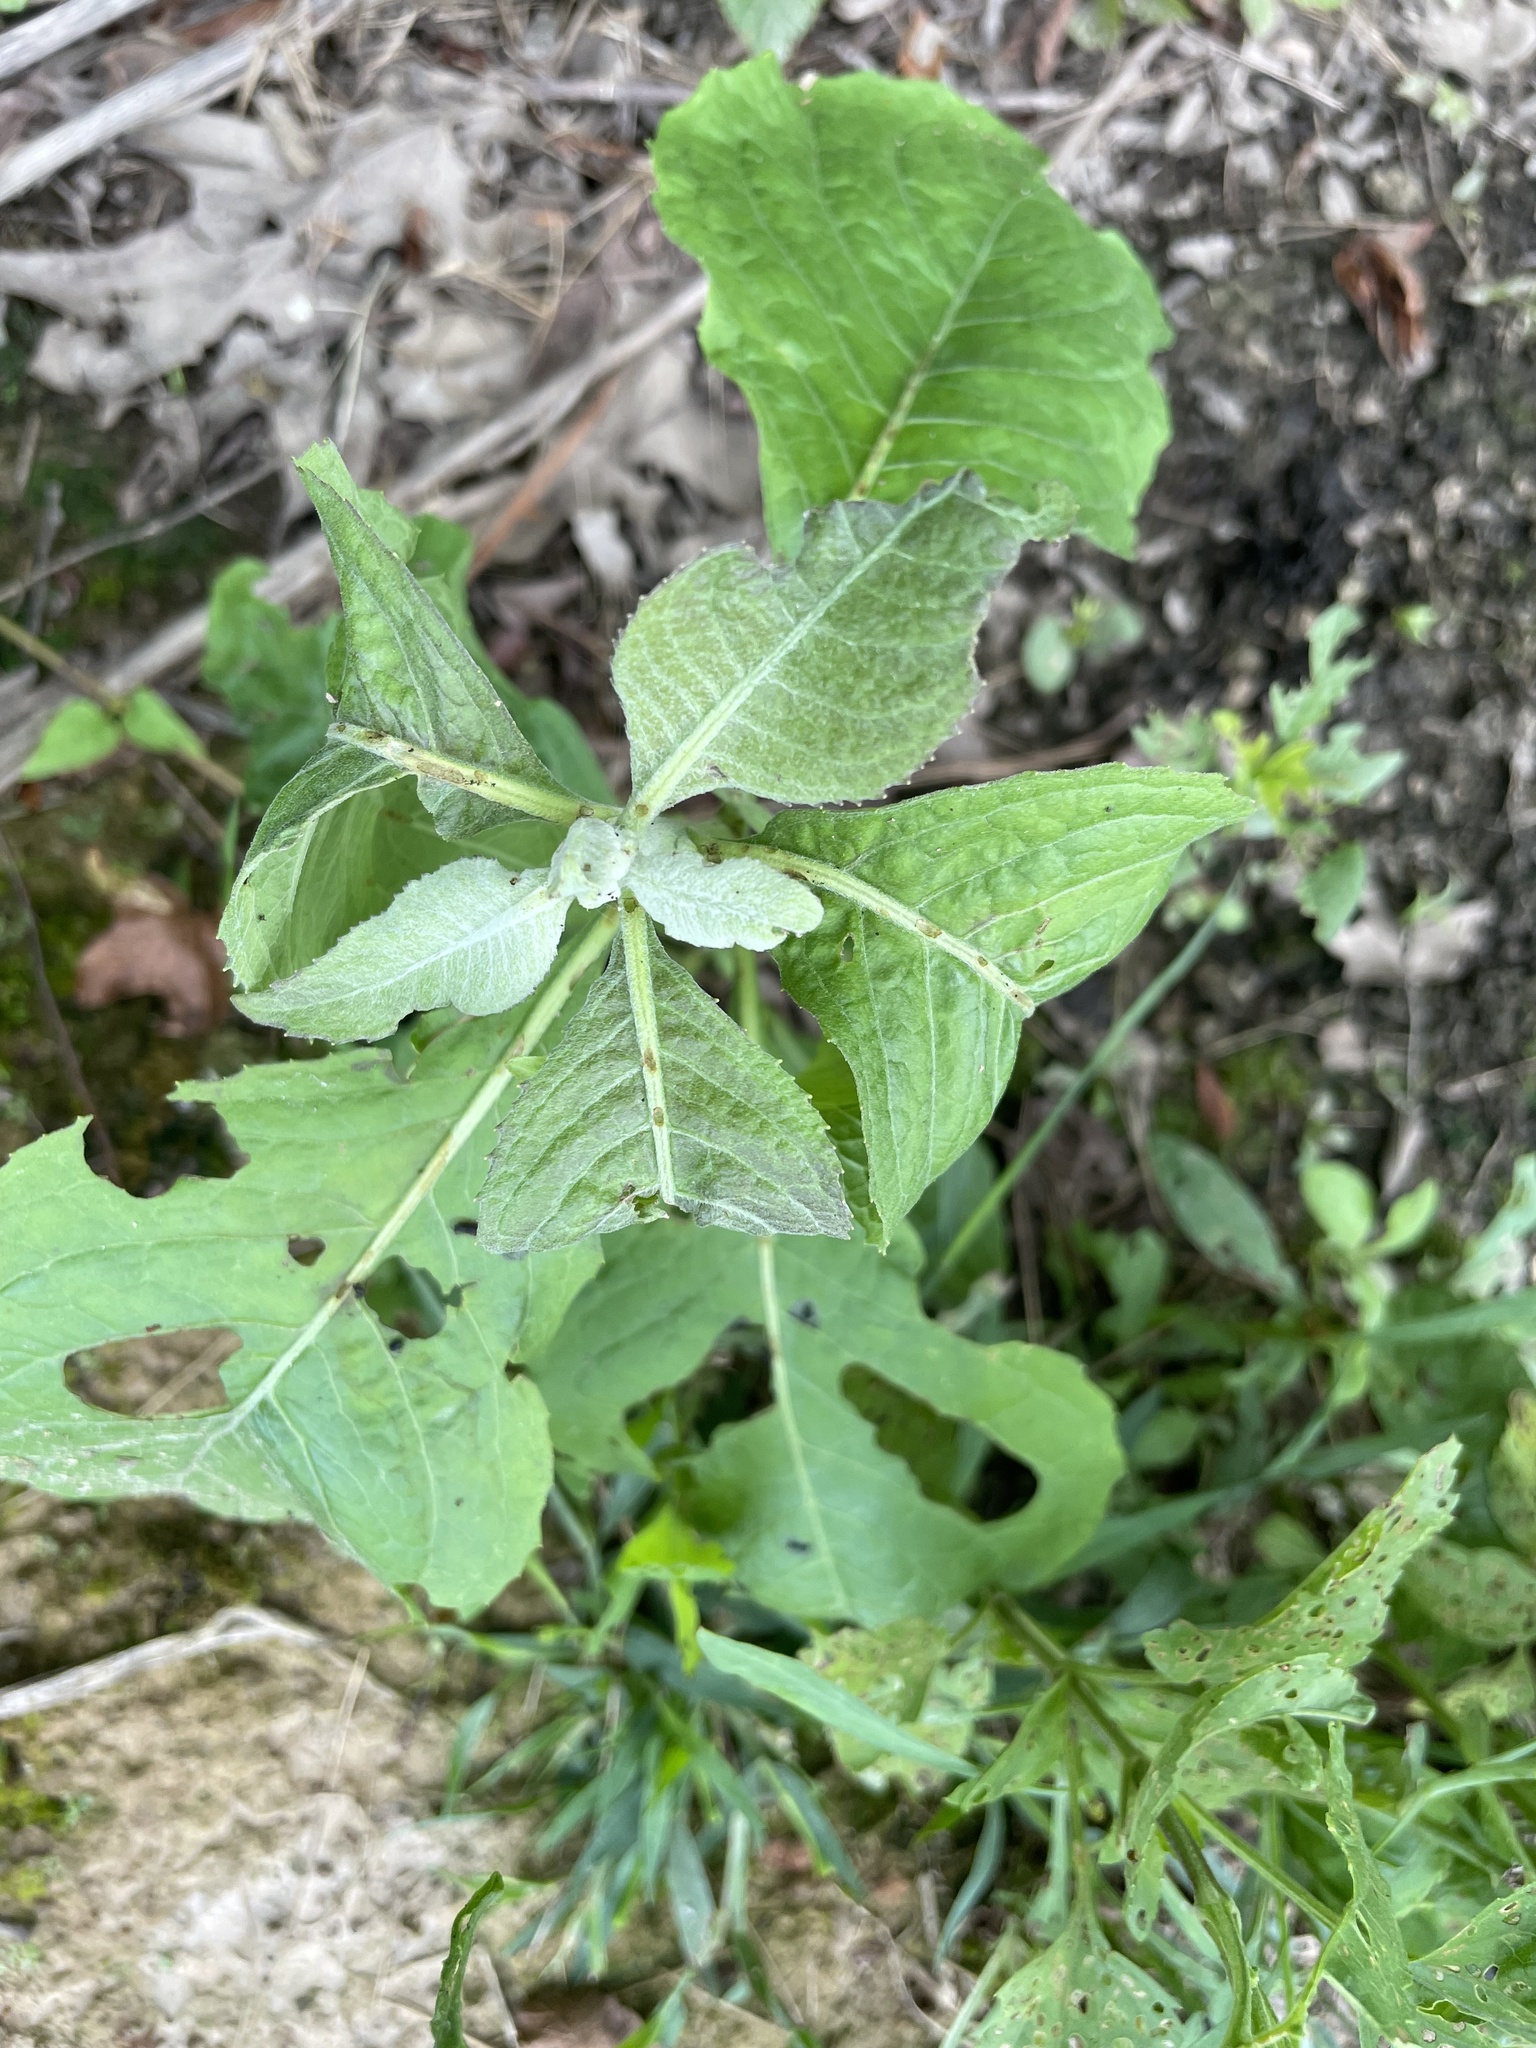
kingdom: Plantae
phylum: Tracheophyta
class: Magnoliopsida
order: Asterales
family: Asteraceae
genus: Pluchea
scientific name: Pluchea camphorata
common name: Camphor pluchea
